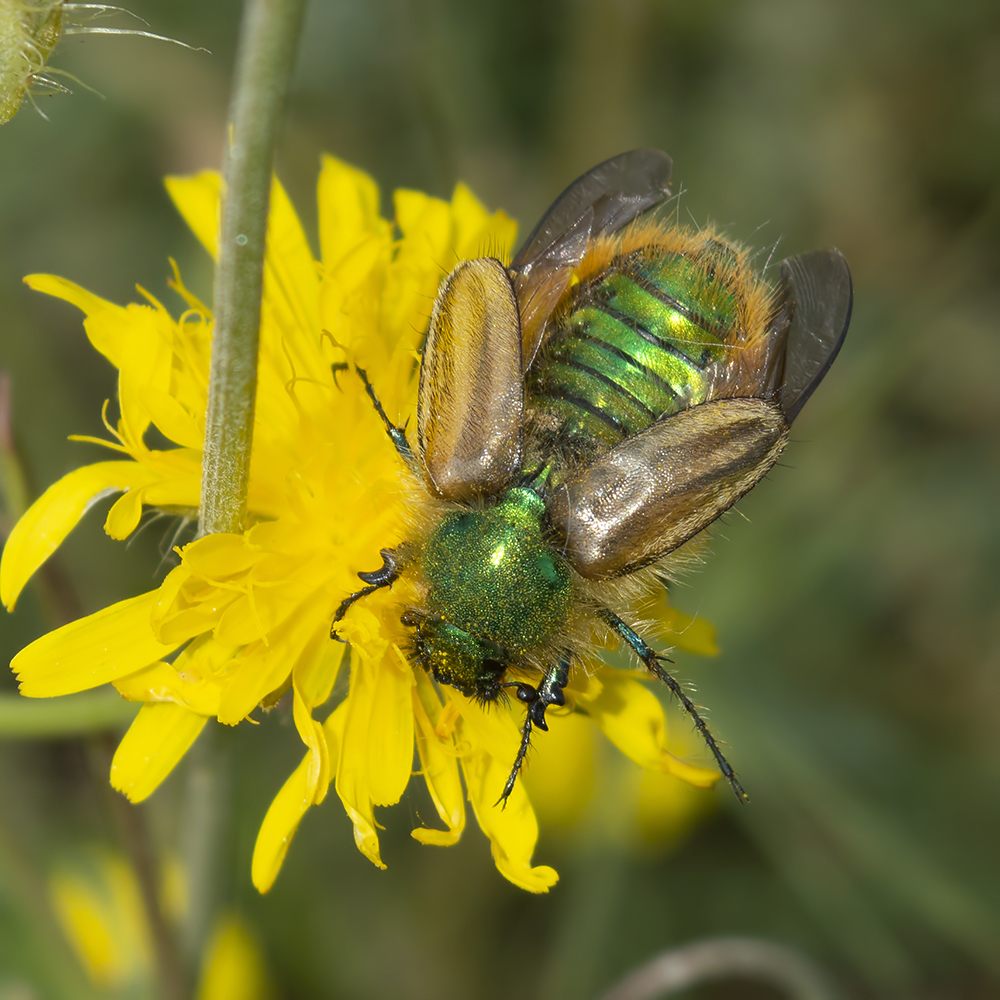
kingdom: Animalia
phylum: Arthropoda
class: Insecta
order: Coleoptera
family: Glaphyridae
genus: Eulasia
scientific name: Eulasia pareyssei
